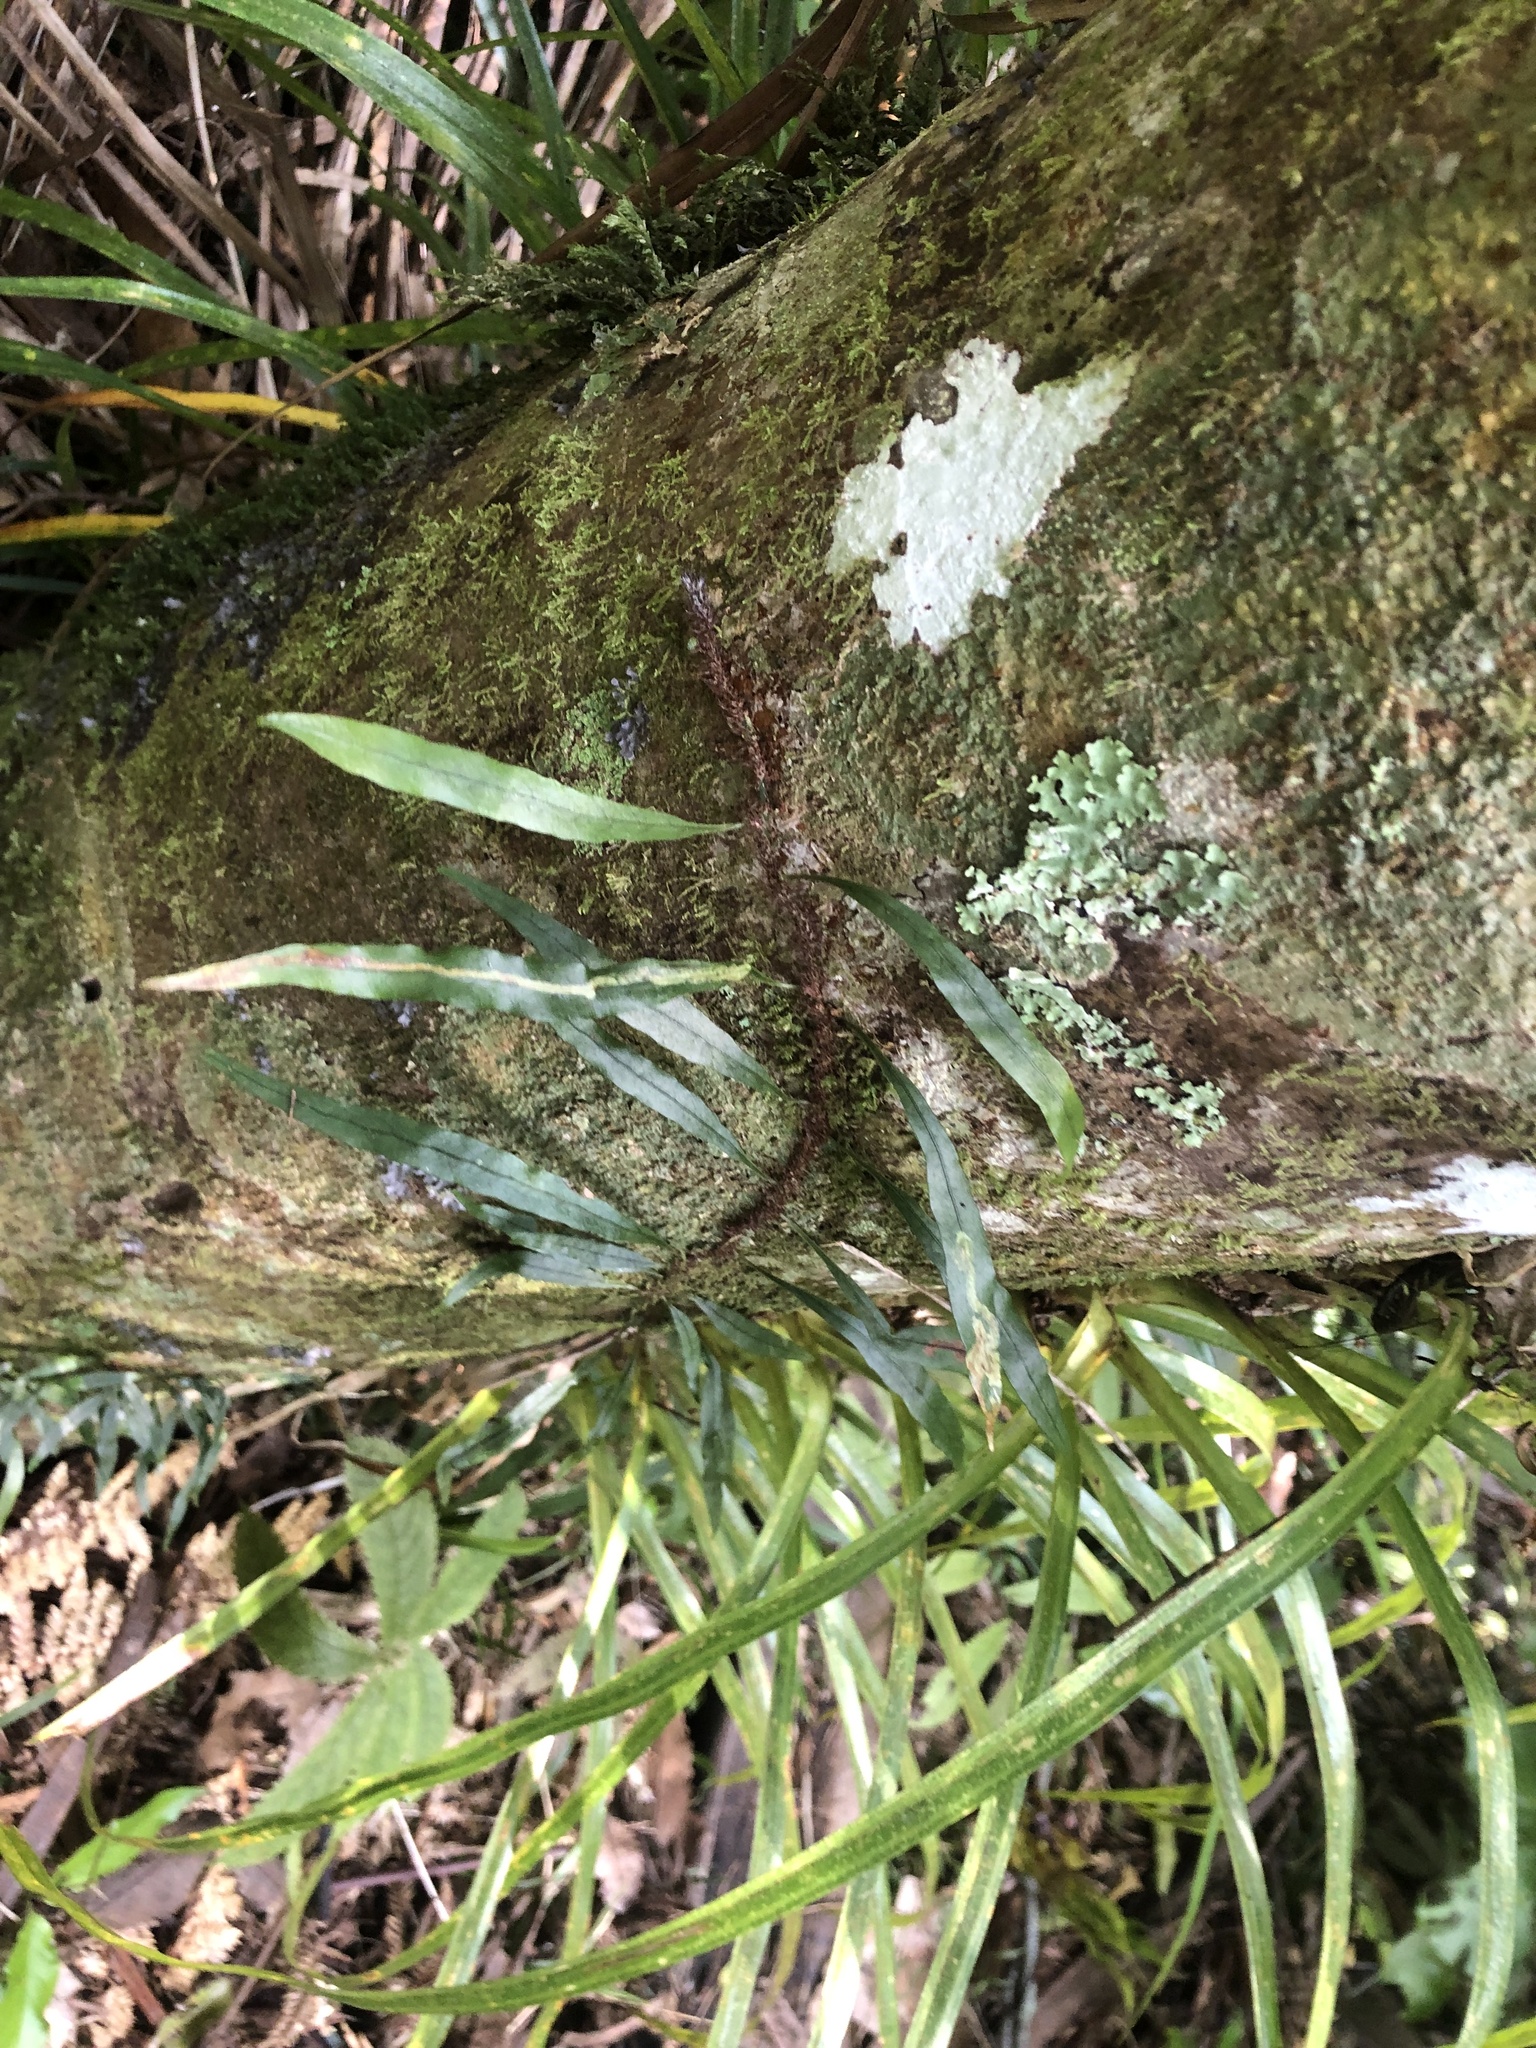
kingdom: Plantae
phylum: Tracheophyta
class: Polypodiopsida
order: Polypodiales
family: Polypodiaceae
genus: Lecanopteris
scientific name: Lecanopteris scandens
